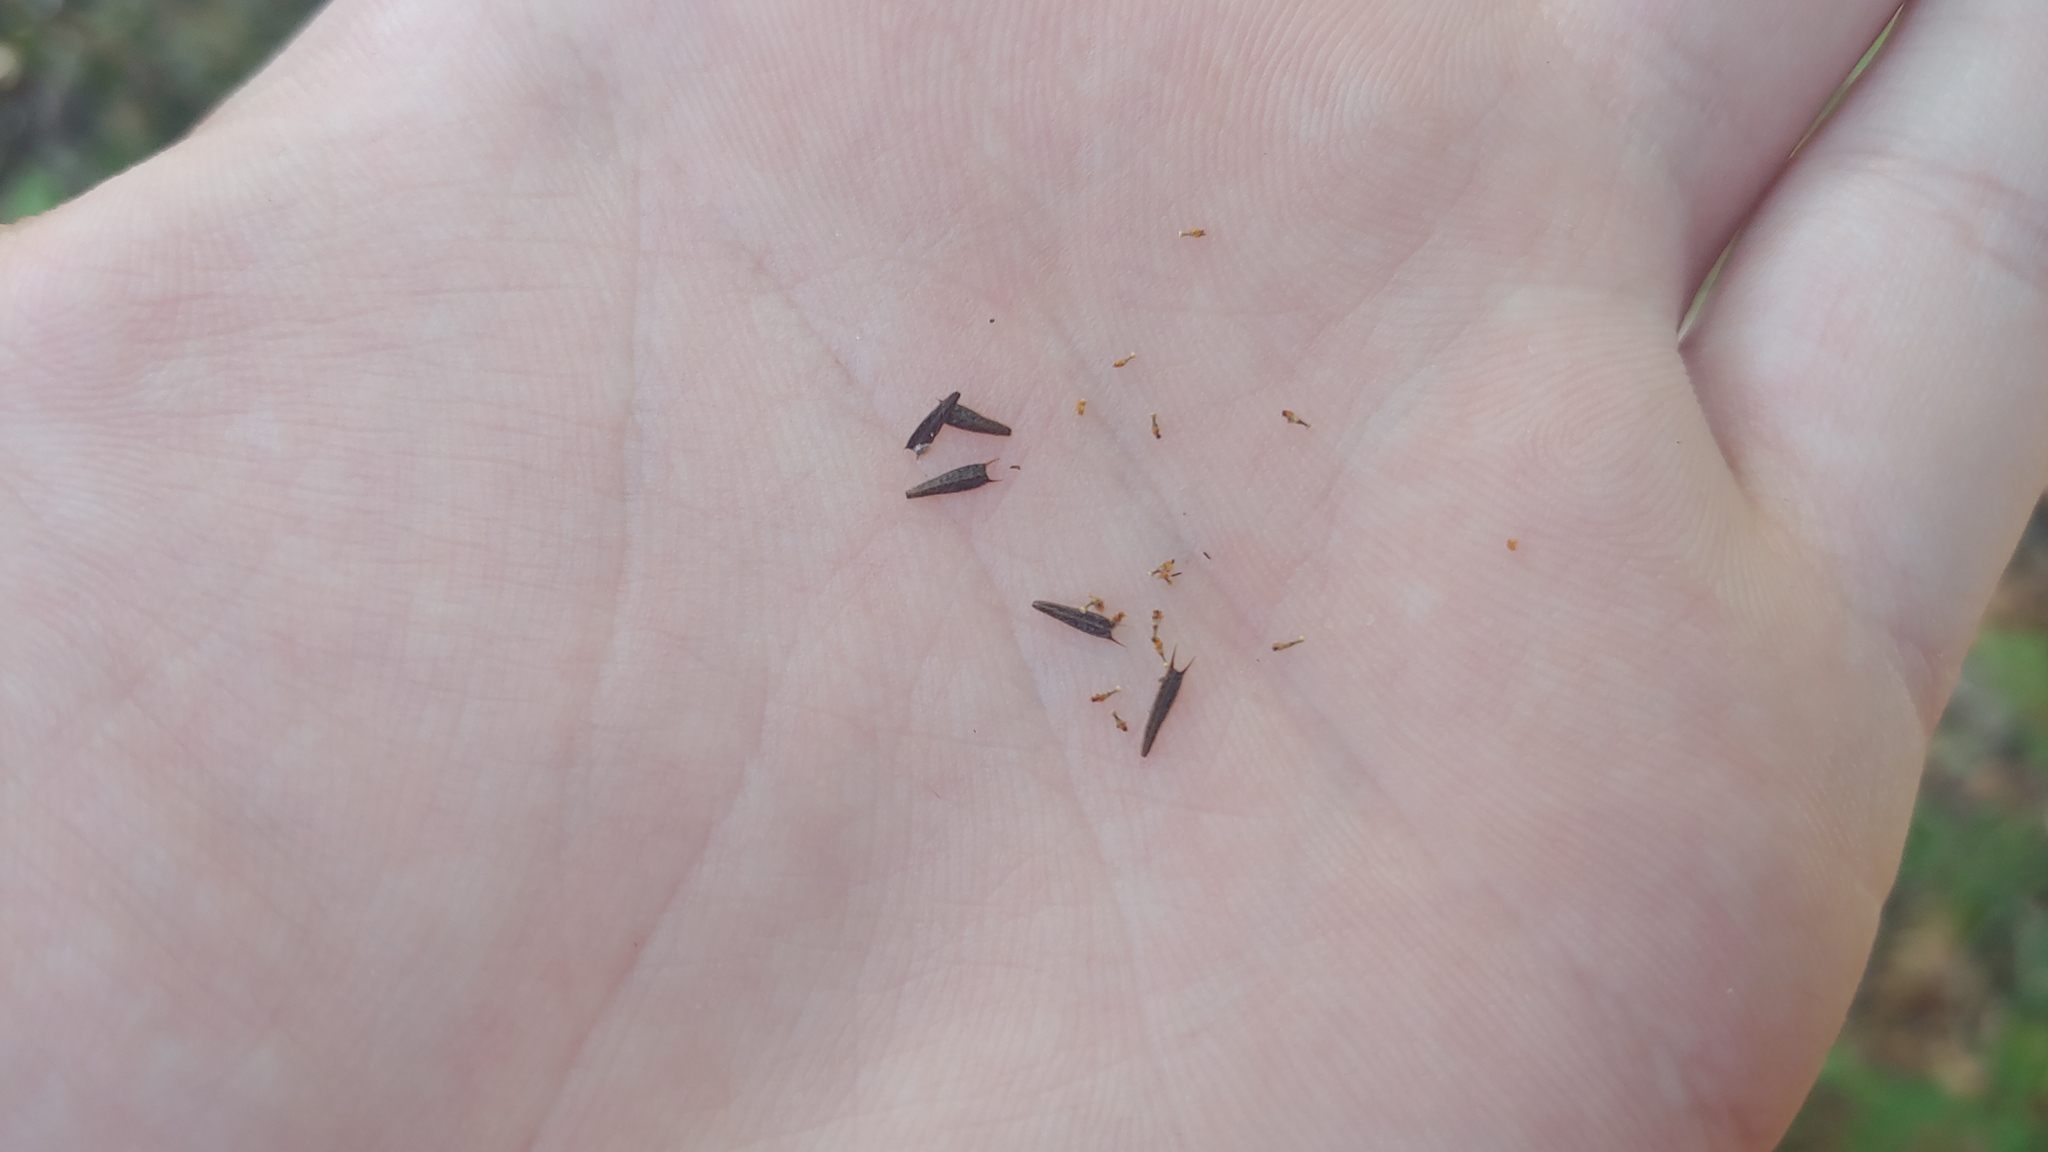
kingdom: Plantae
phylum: Tracheophyta
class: Magnoliopsida
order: Asterales
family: Asteraceae
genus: Bidens
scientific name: Bidens discoidea
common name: Discoide beggarticks
